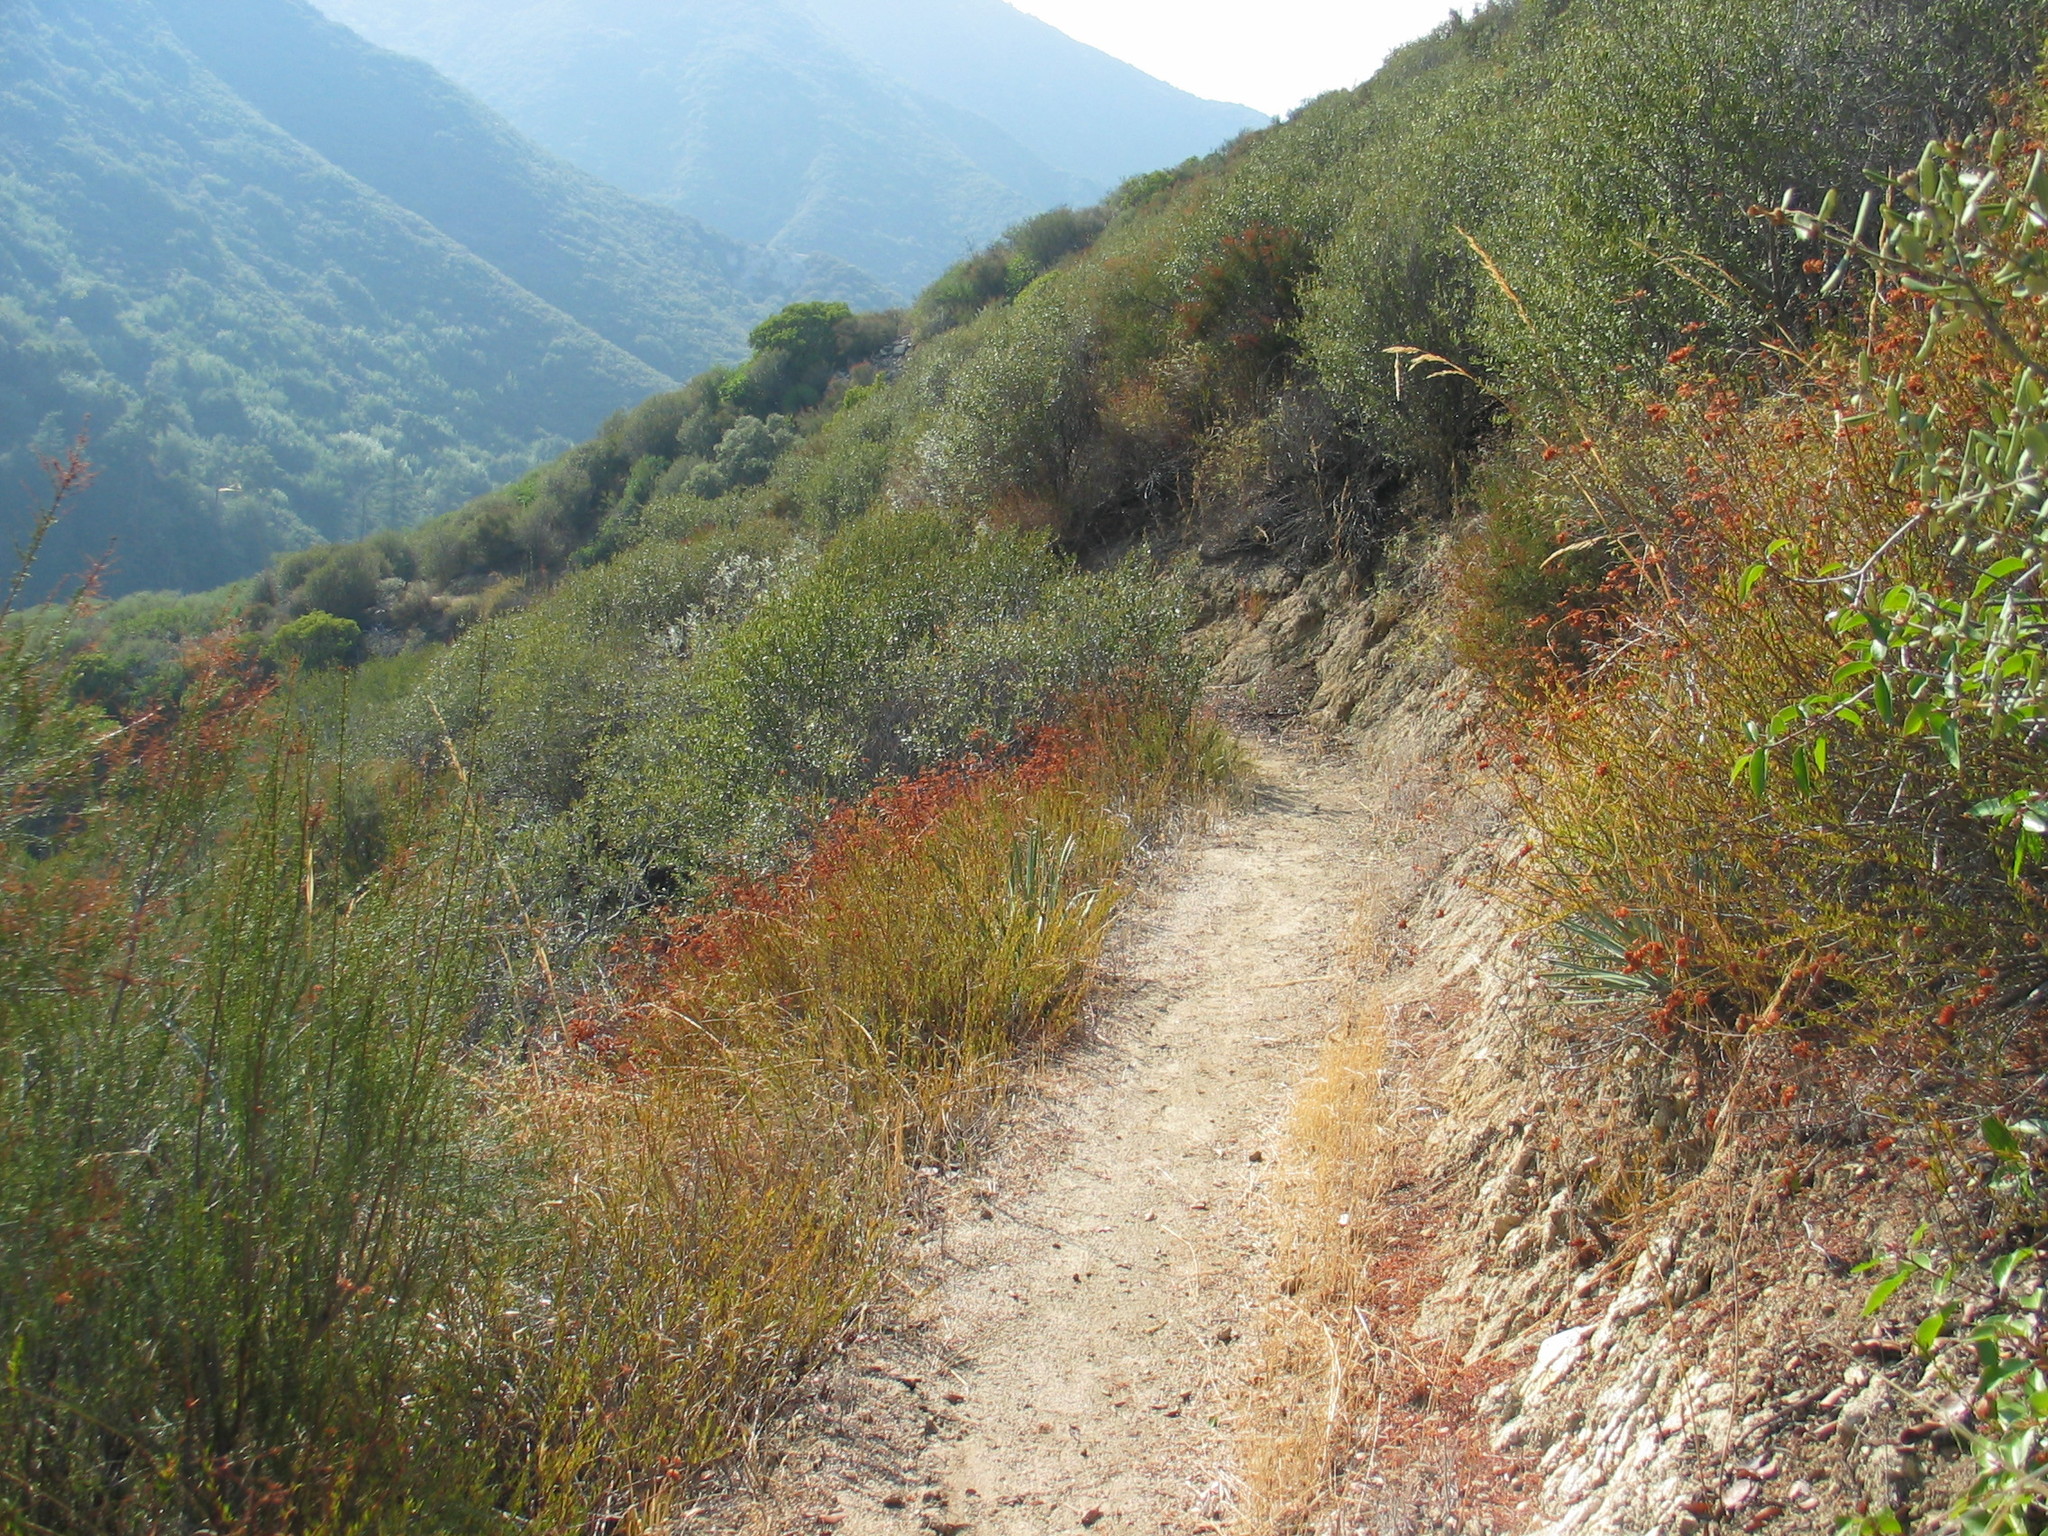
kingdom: Plantae
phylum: Tracheophyta
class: Magnoliopsida
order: Caryophyllales
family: Polygonaceae
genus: Eriogonum
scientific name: Eriogonum fasciculatum
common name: California wild buckwheat
